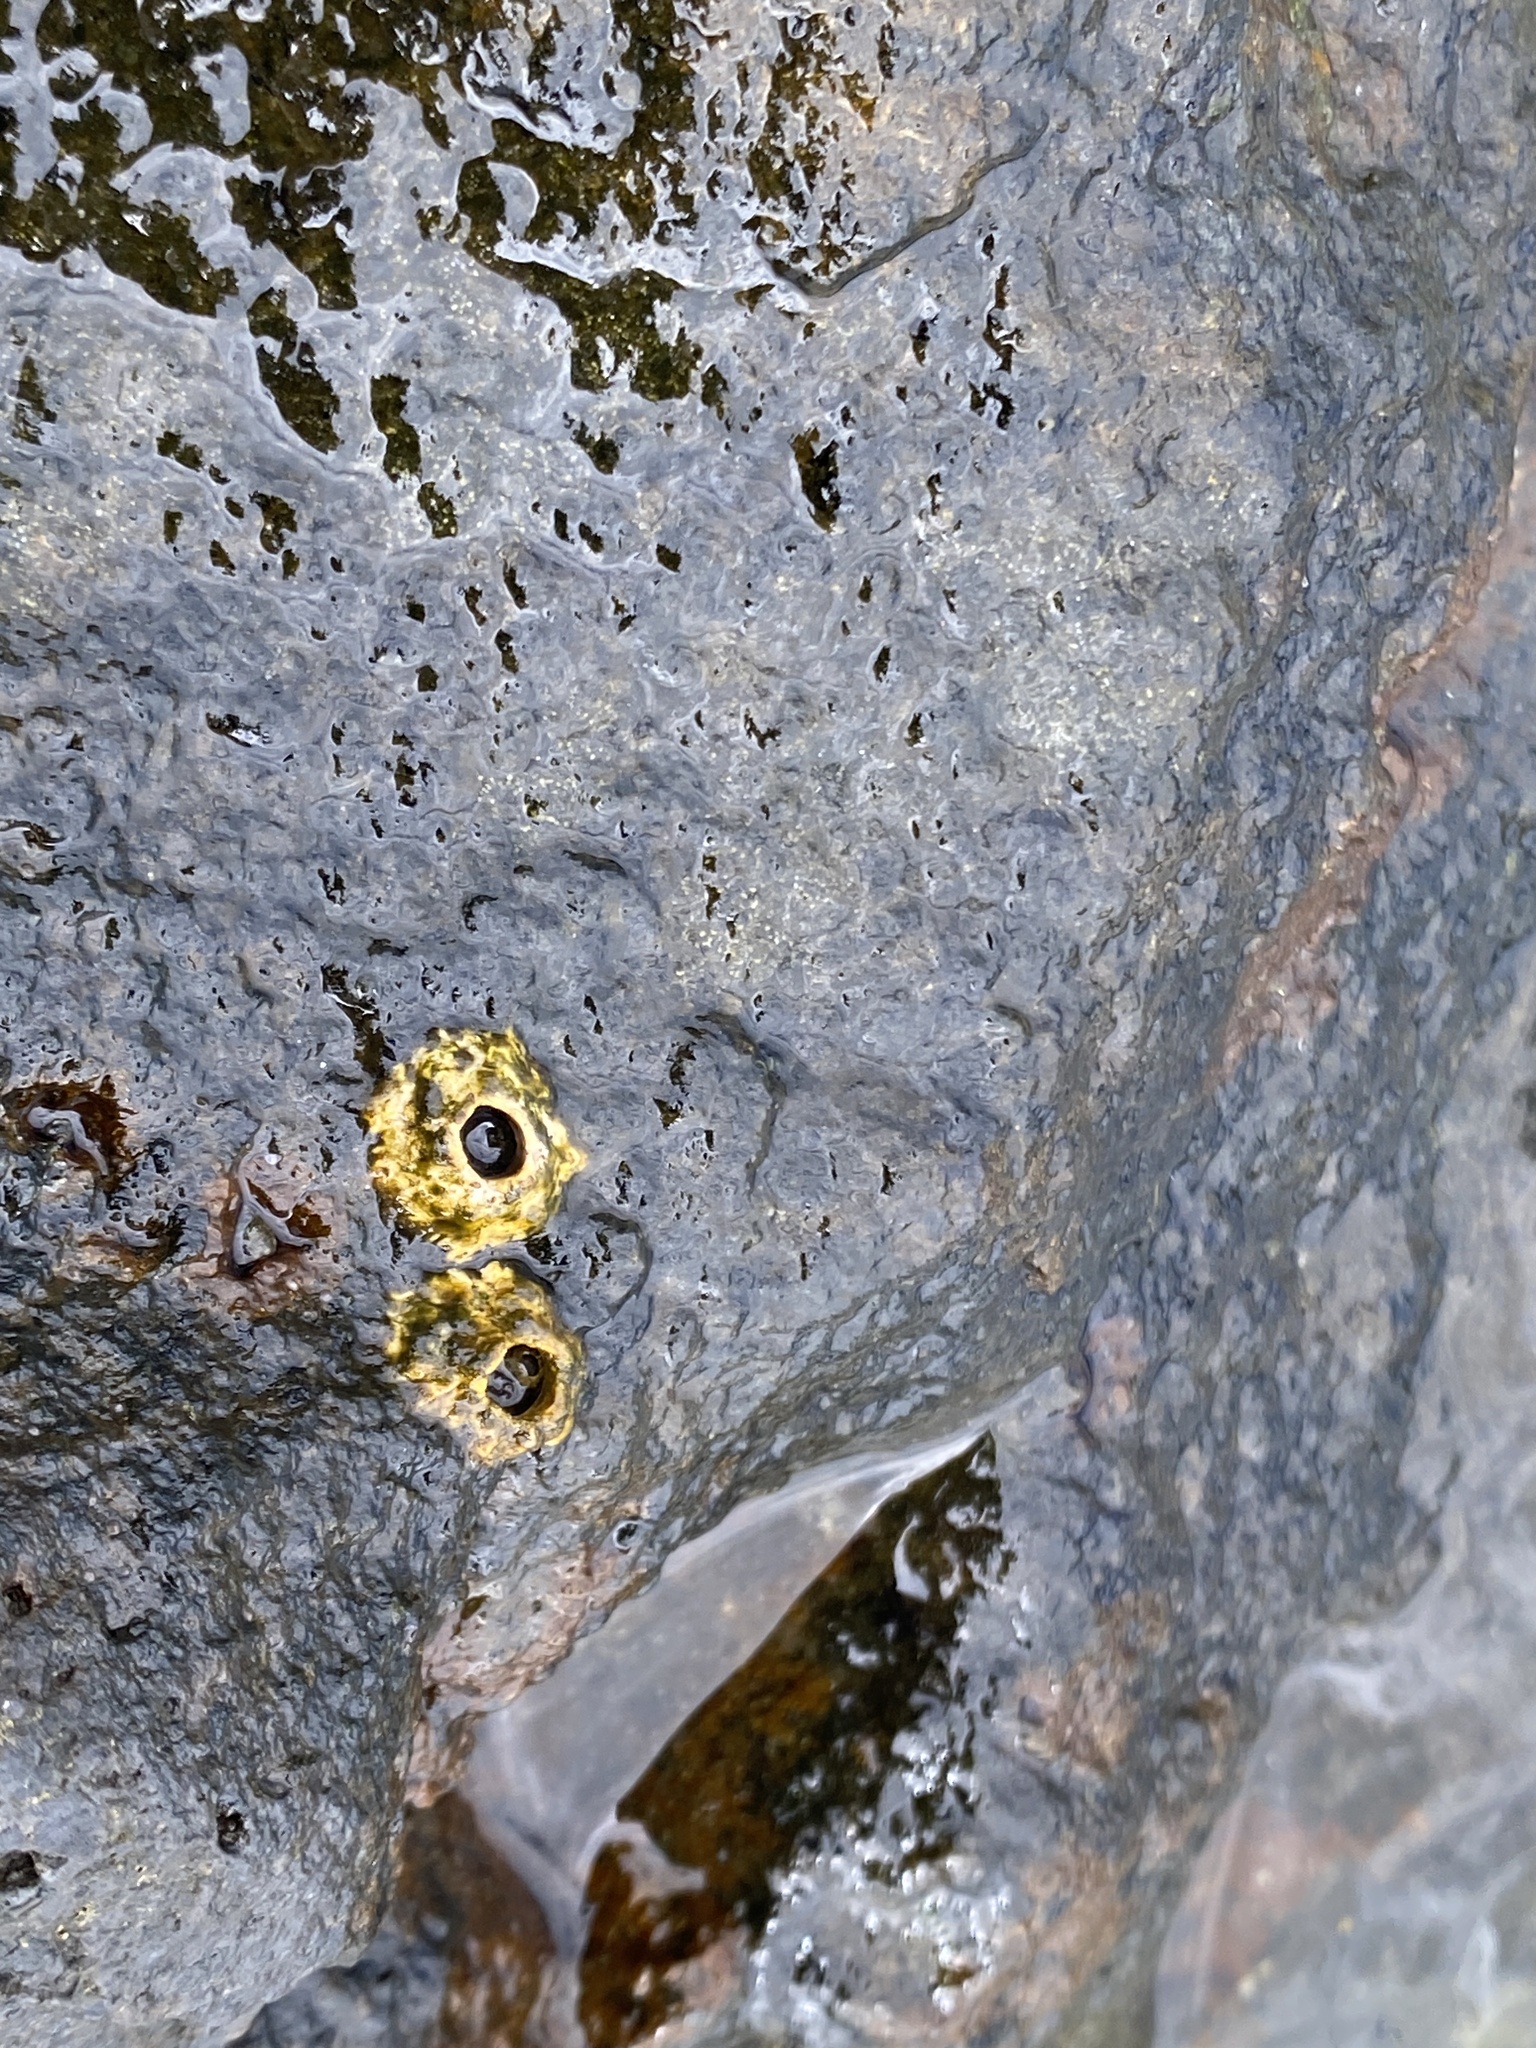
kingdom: Animalia
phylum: Arthropoda
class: Maxillopoda
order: Sessilia
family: Chthamalidae
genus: Chthamalus
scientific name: Chthamalus stellatus
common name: Poli's stellate barnacle
